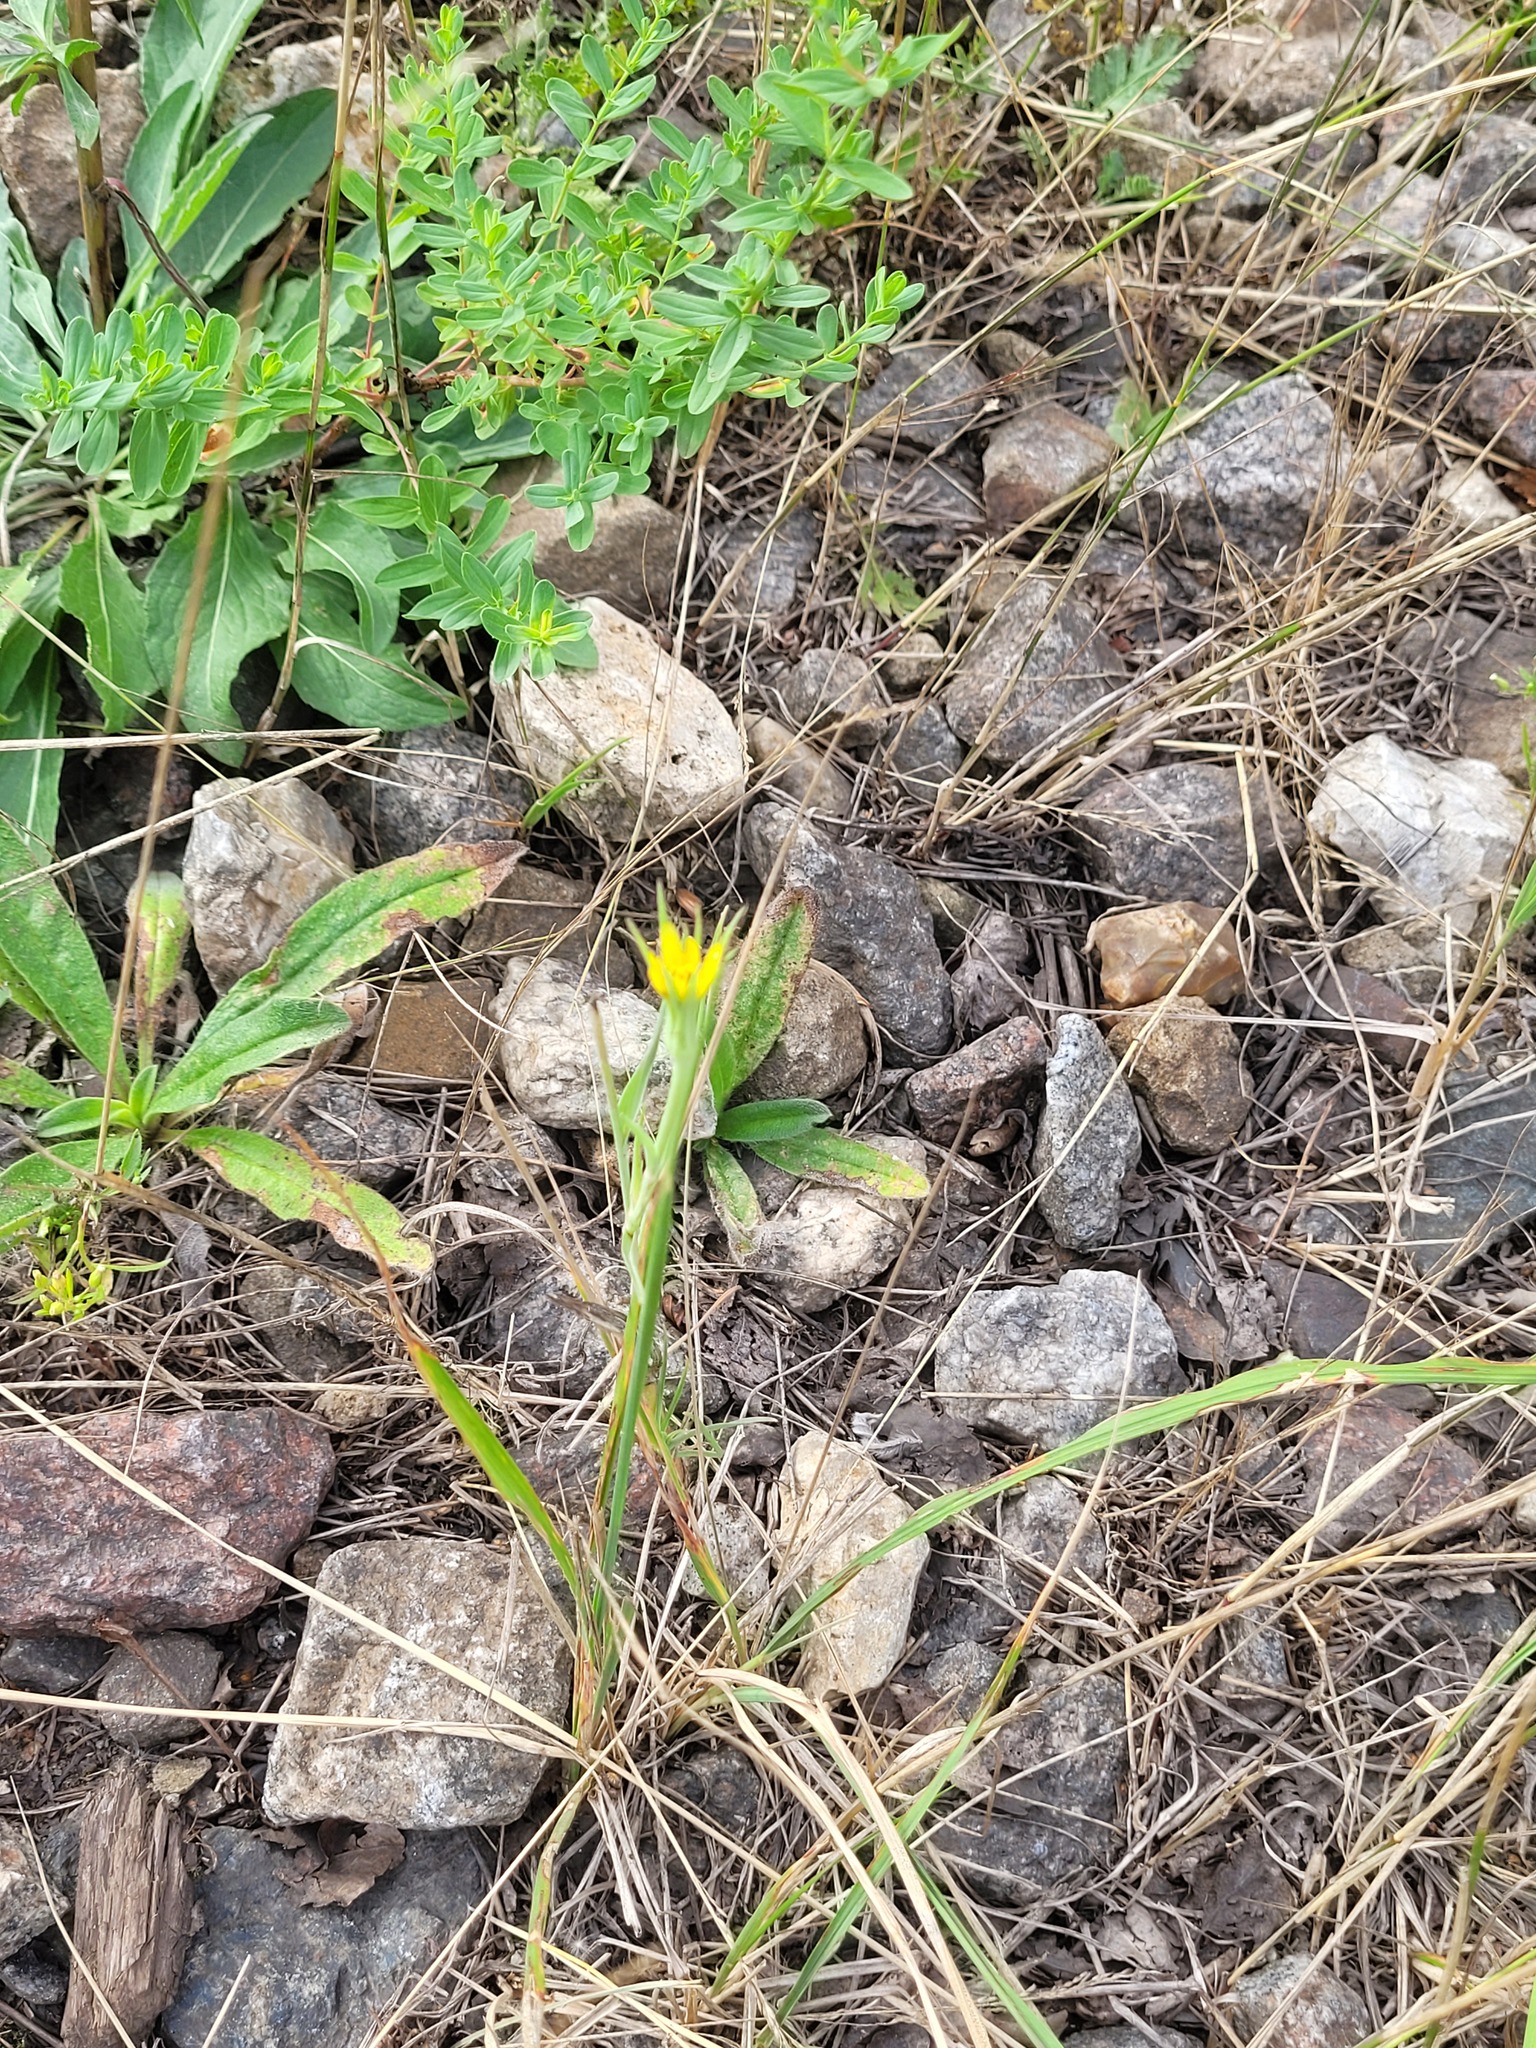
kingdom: Plantae
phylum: Tracheophyta
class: Magnoliopsida
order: Asterales
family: Asteraceae
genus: Tragopogon
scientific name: Tragopogon dubius
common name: Yellow salsify
